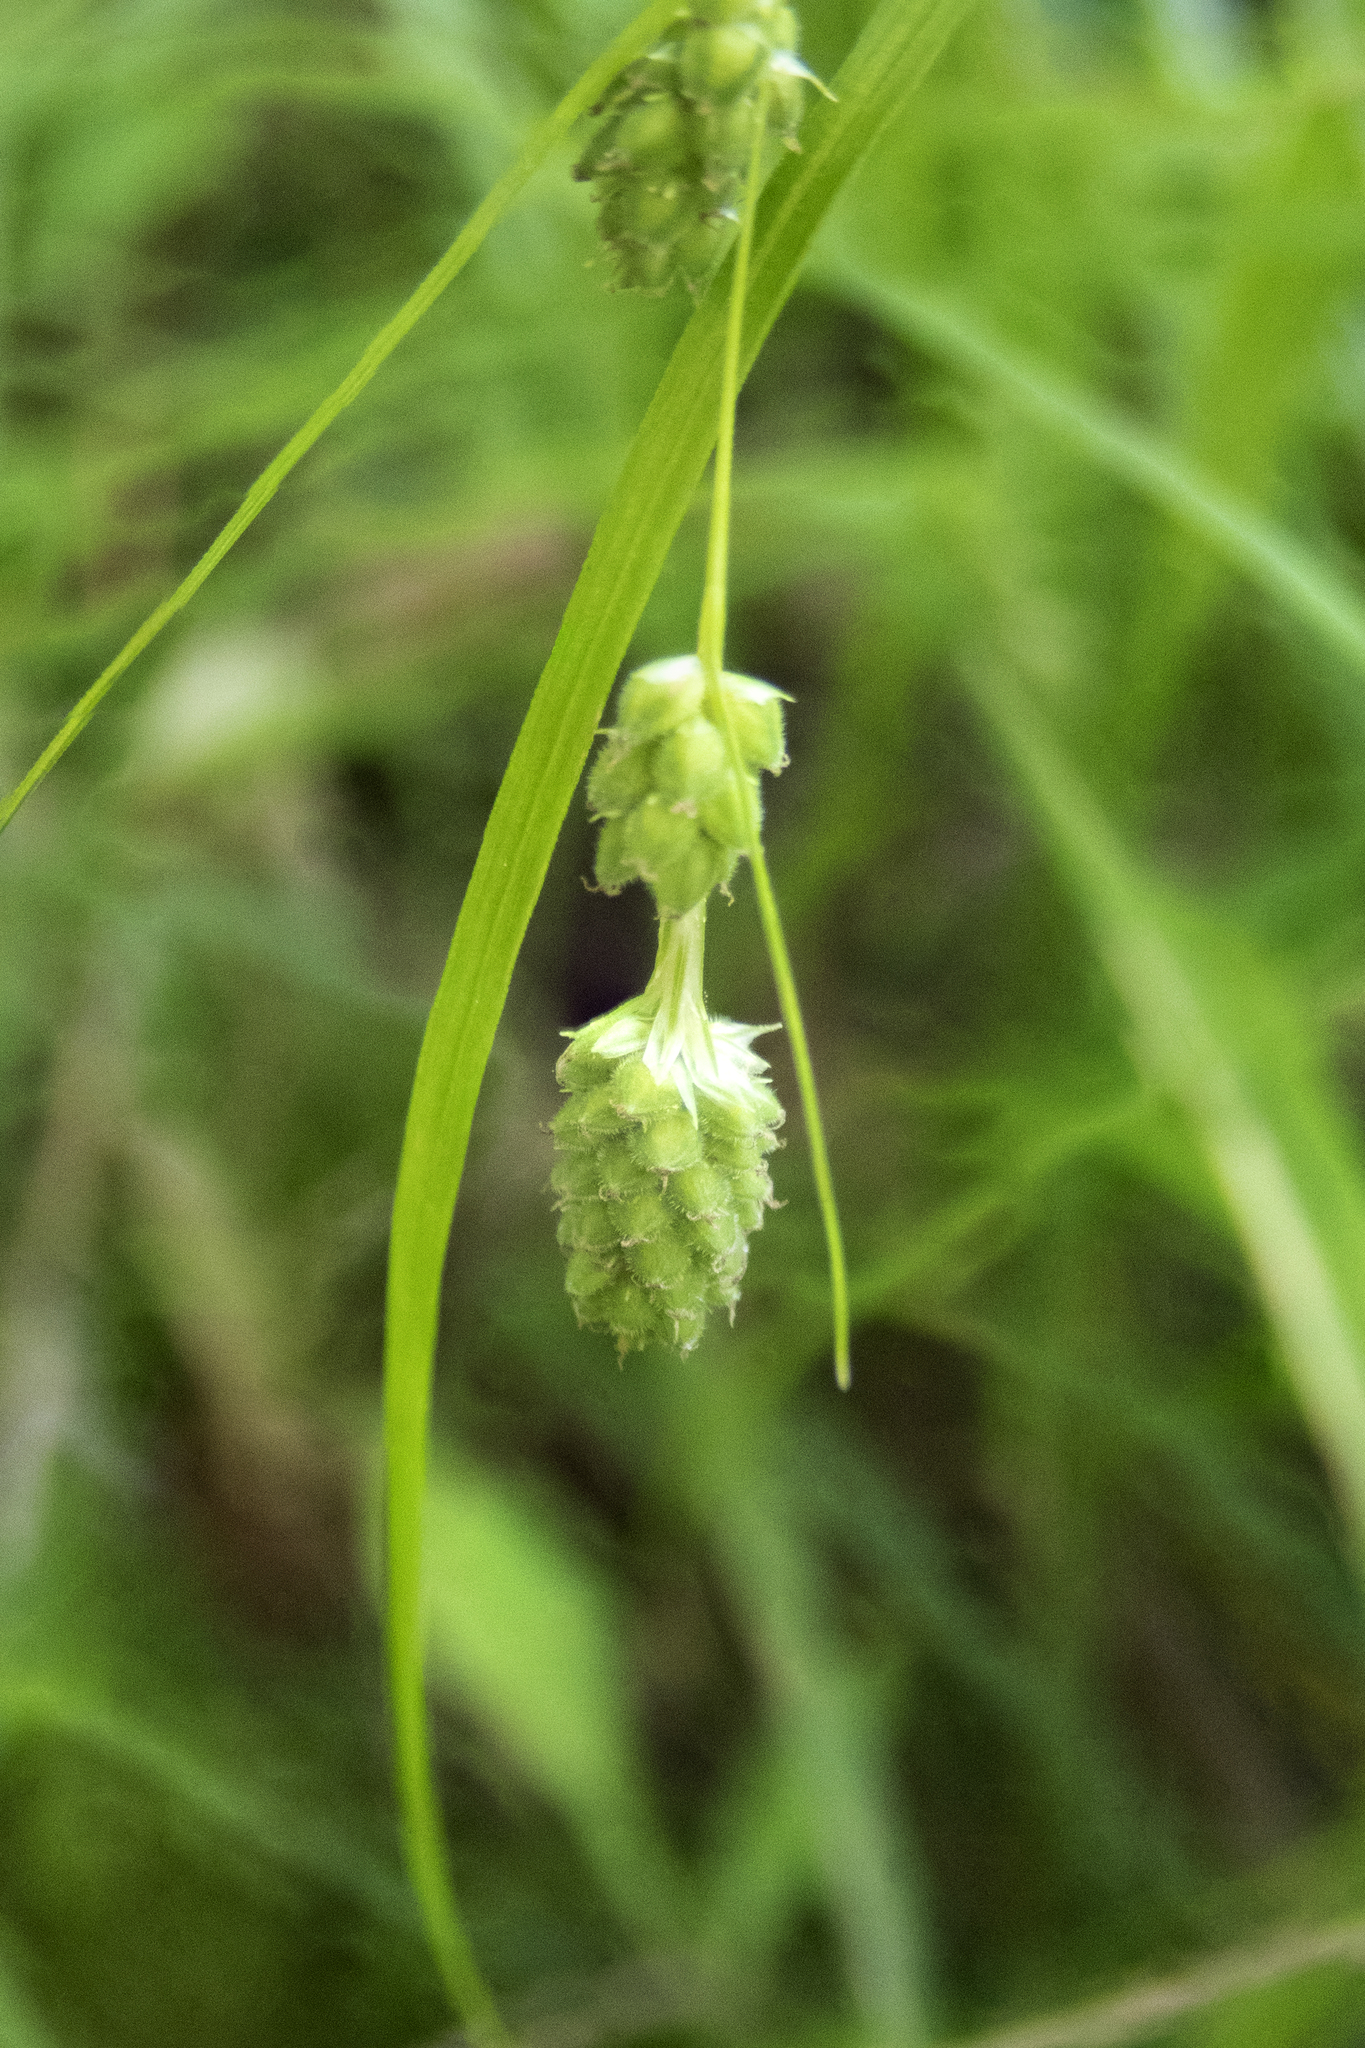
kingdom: Plantae
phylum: Tracheophyta
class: Liliopsida
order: Poales
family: Cyperaceae
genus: Carex
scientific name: Carex swanii
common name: Downy green sedge
